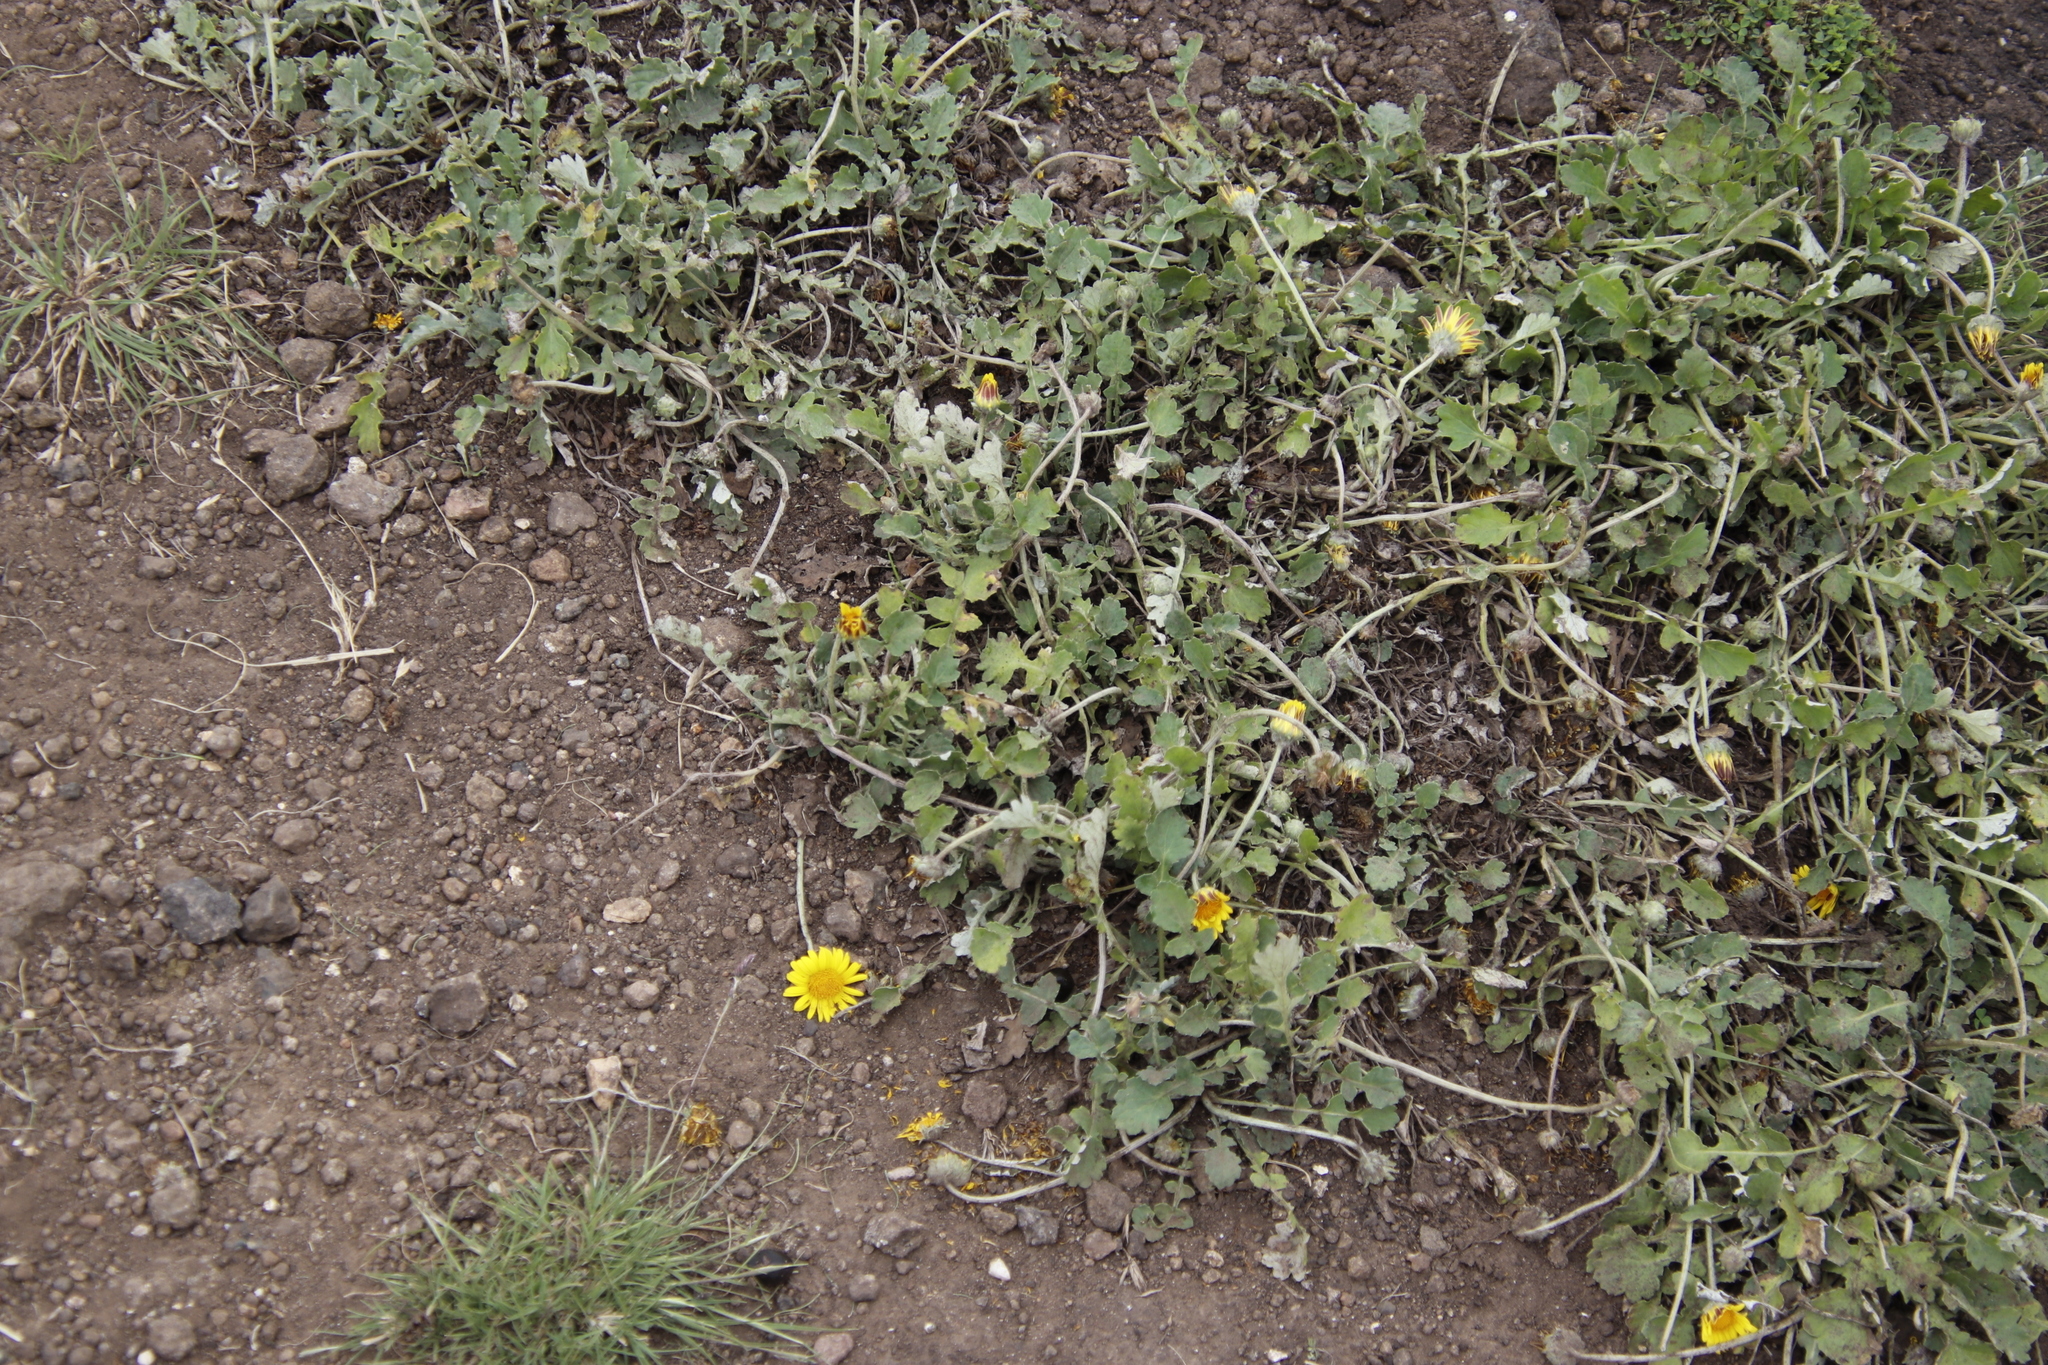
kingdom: Plantae
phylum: Tracheophyta
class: Magnoliopsida
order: Asterales
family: Asteraceae
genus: Arctotis
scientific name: Arctotis arctotoides
